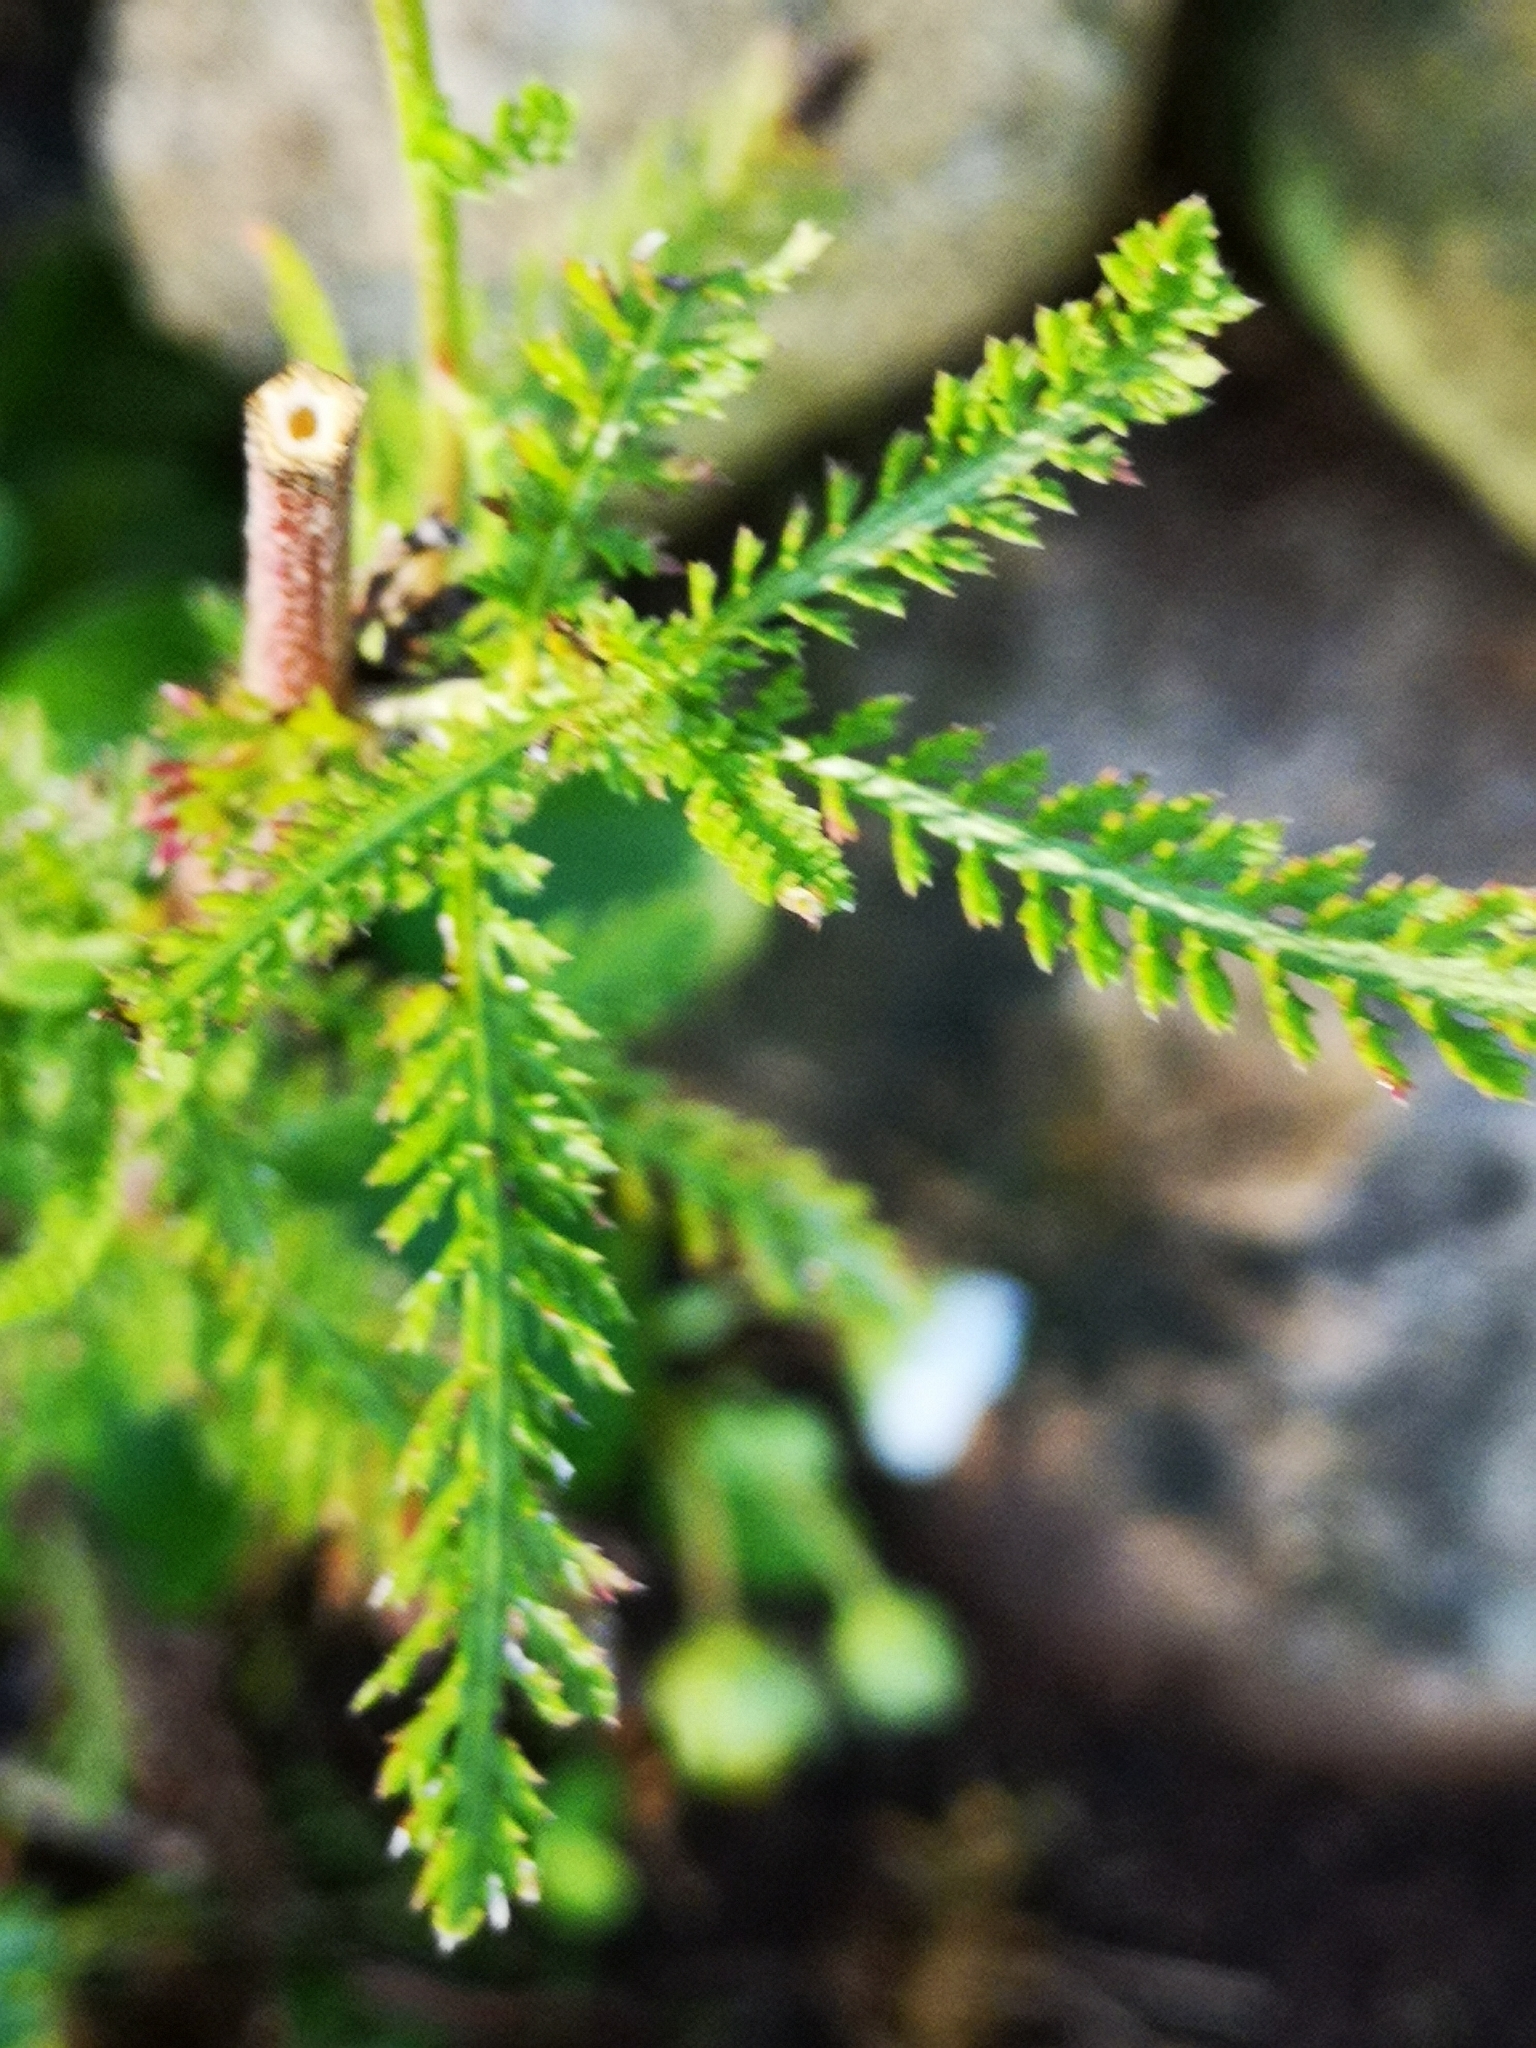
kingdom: Plantae
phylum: Tracheophyta
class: Magnoliopsida
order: Asterales
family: Asteraceae
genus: Achillea
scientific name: Achillea millefolium
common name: Yarrow
